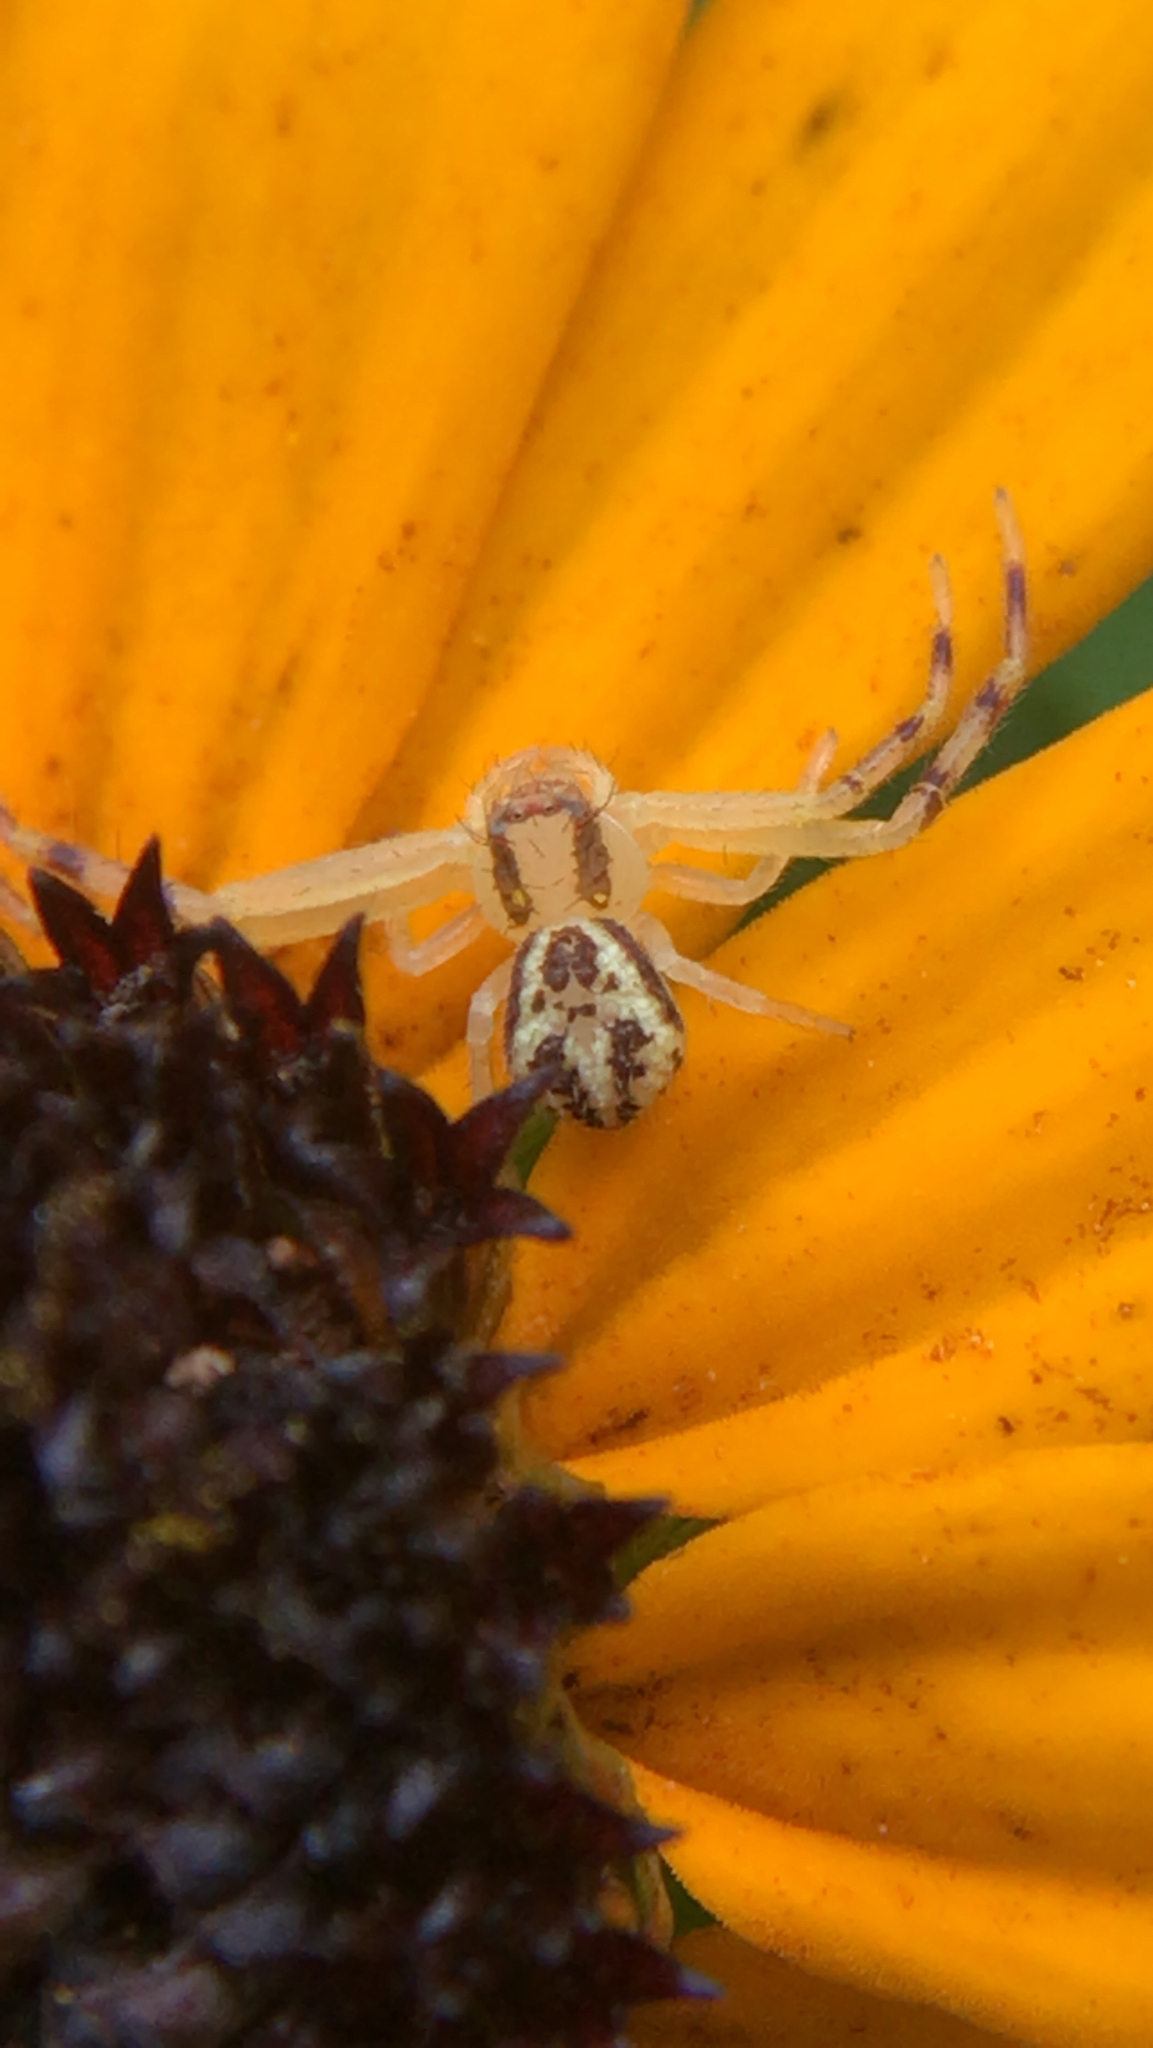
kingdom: Animalia
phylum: Arthropoda
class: Arachnida
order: Araneae
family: Thomisidae
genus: Mecaphesa
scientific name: Mecaphesa asperata
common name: Crab spiders
